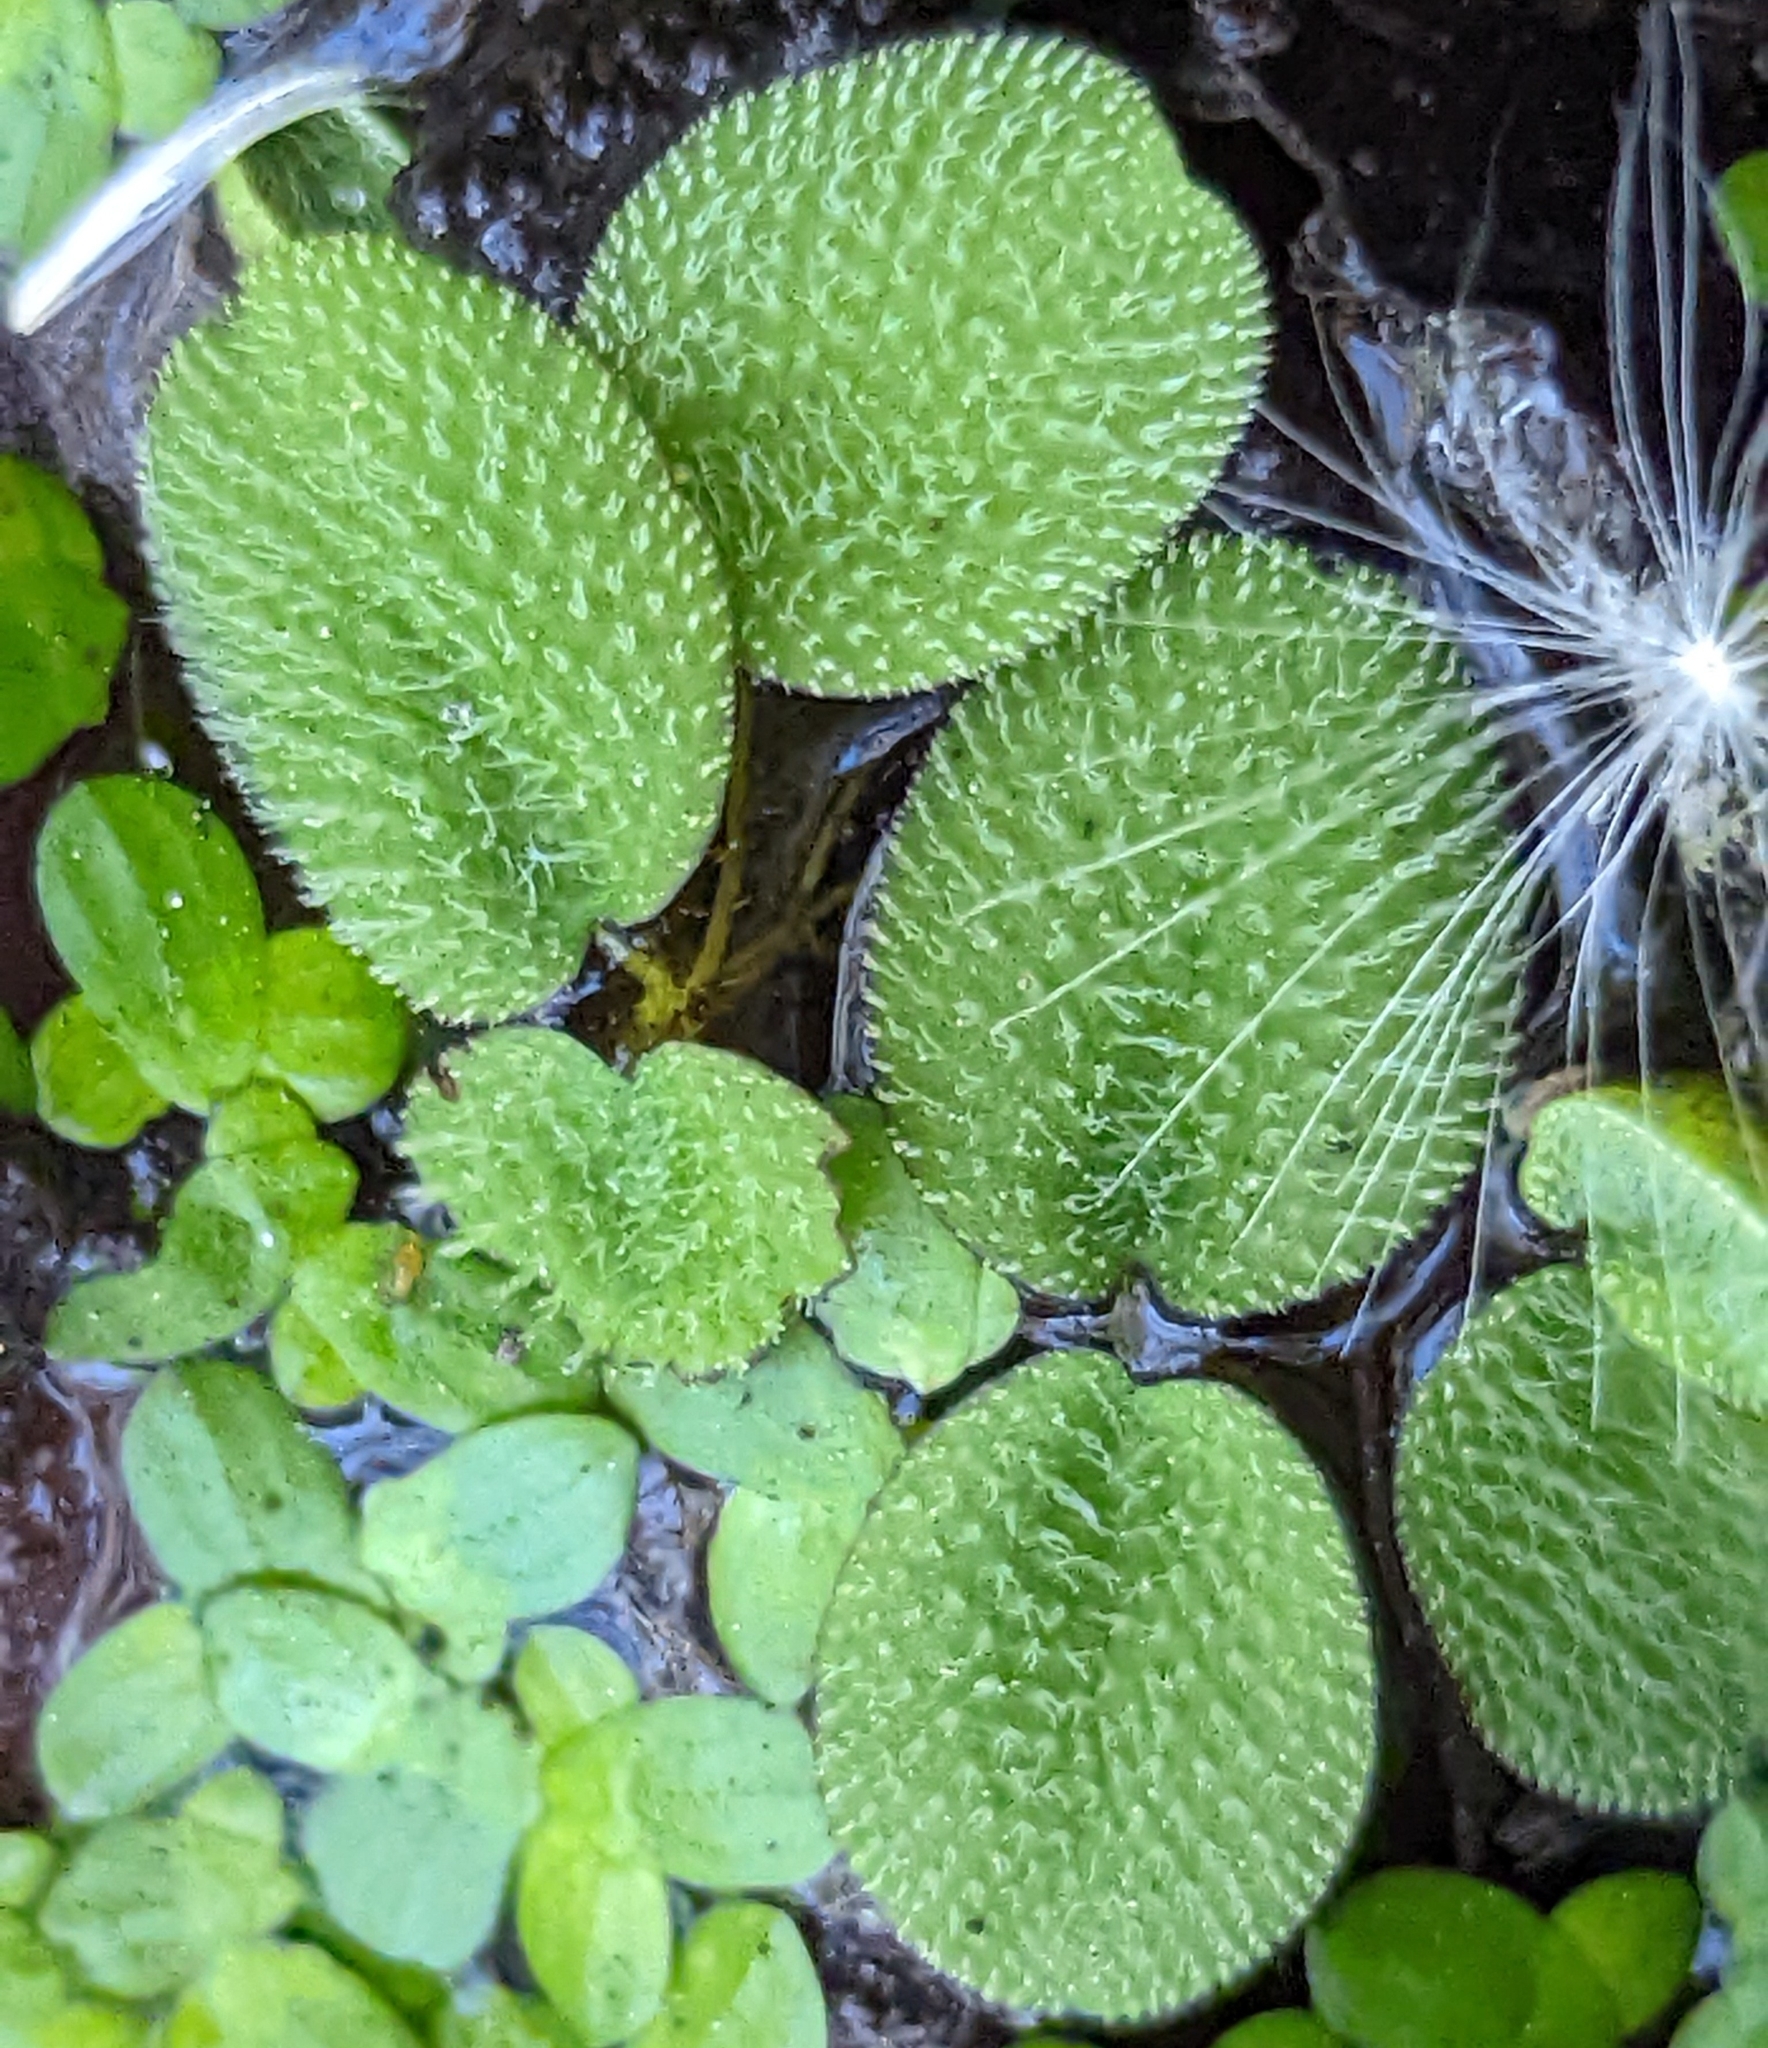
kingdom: Plantae
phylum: Tracheophyta
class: Polypodiopsida
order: Salviniales
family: Salviniaceae
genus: Salvinia
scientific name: Salvinia minima
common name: Water spangles
